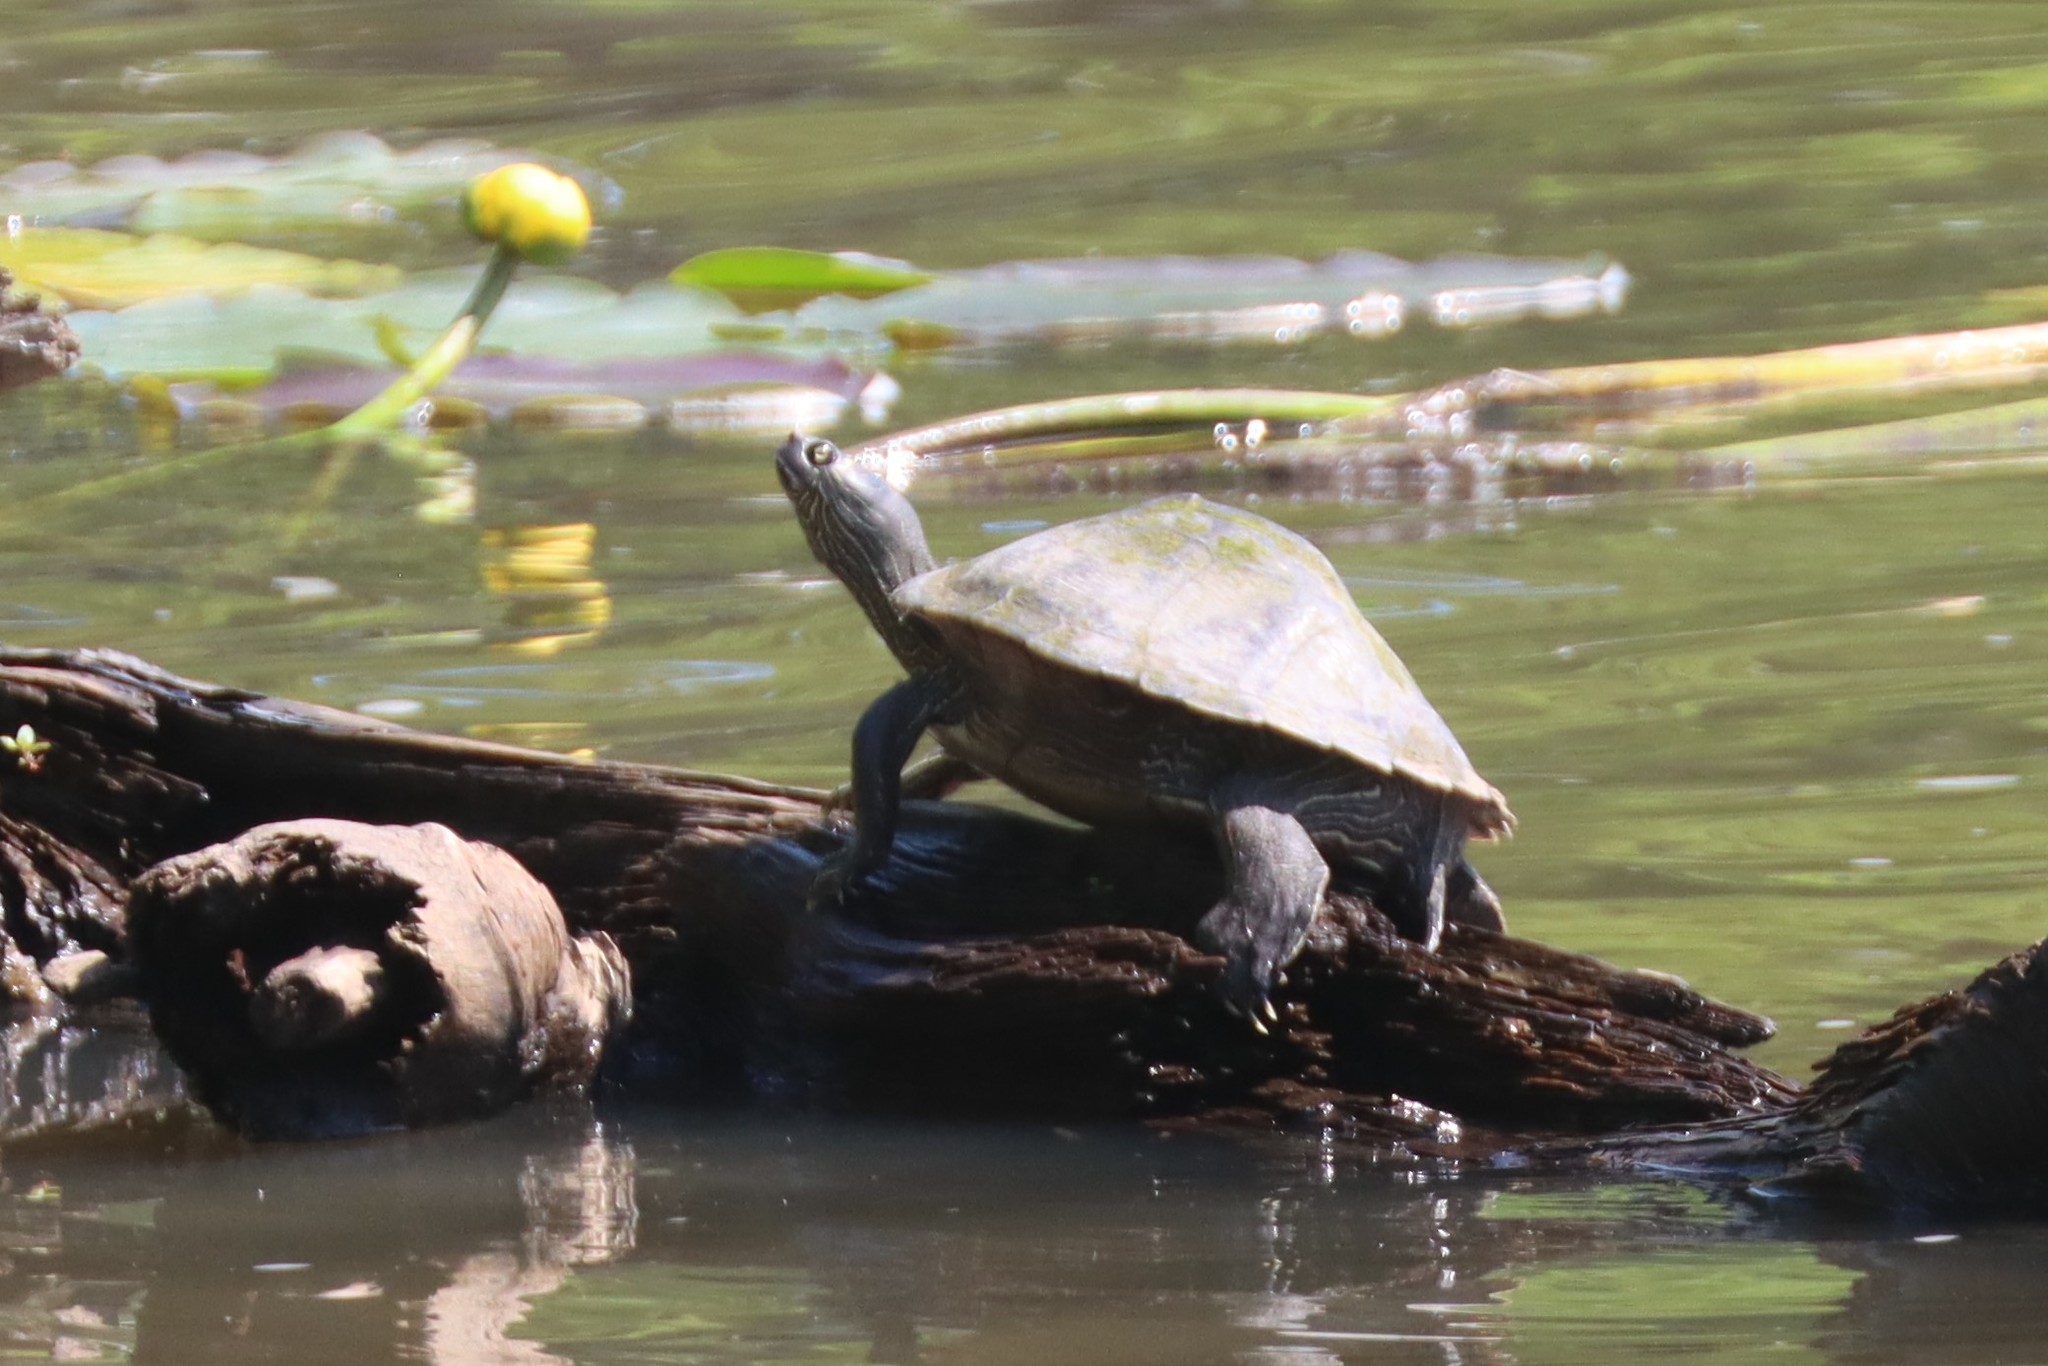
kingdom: Animalia
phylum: Chordata
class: Testudines
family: Emydidae
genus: Graptemys
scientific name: Graptemys sabinensis
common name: Sabine map turtle
